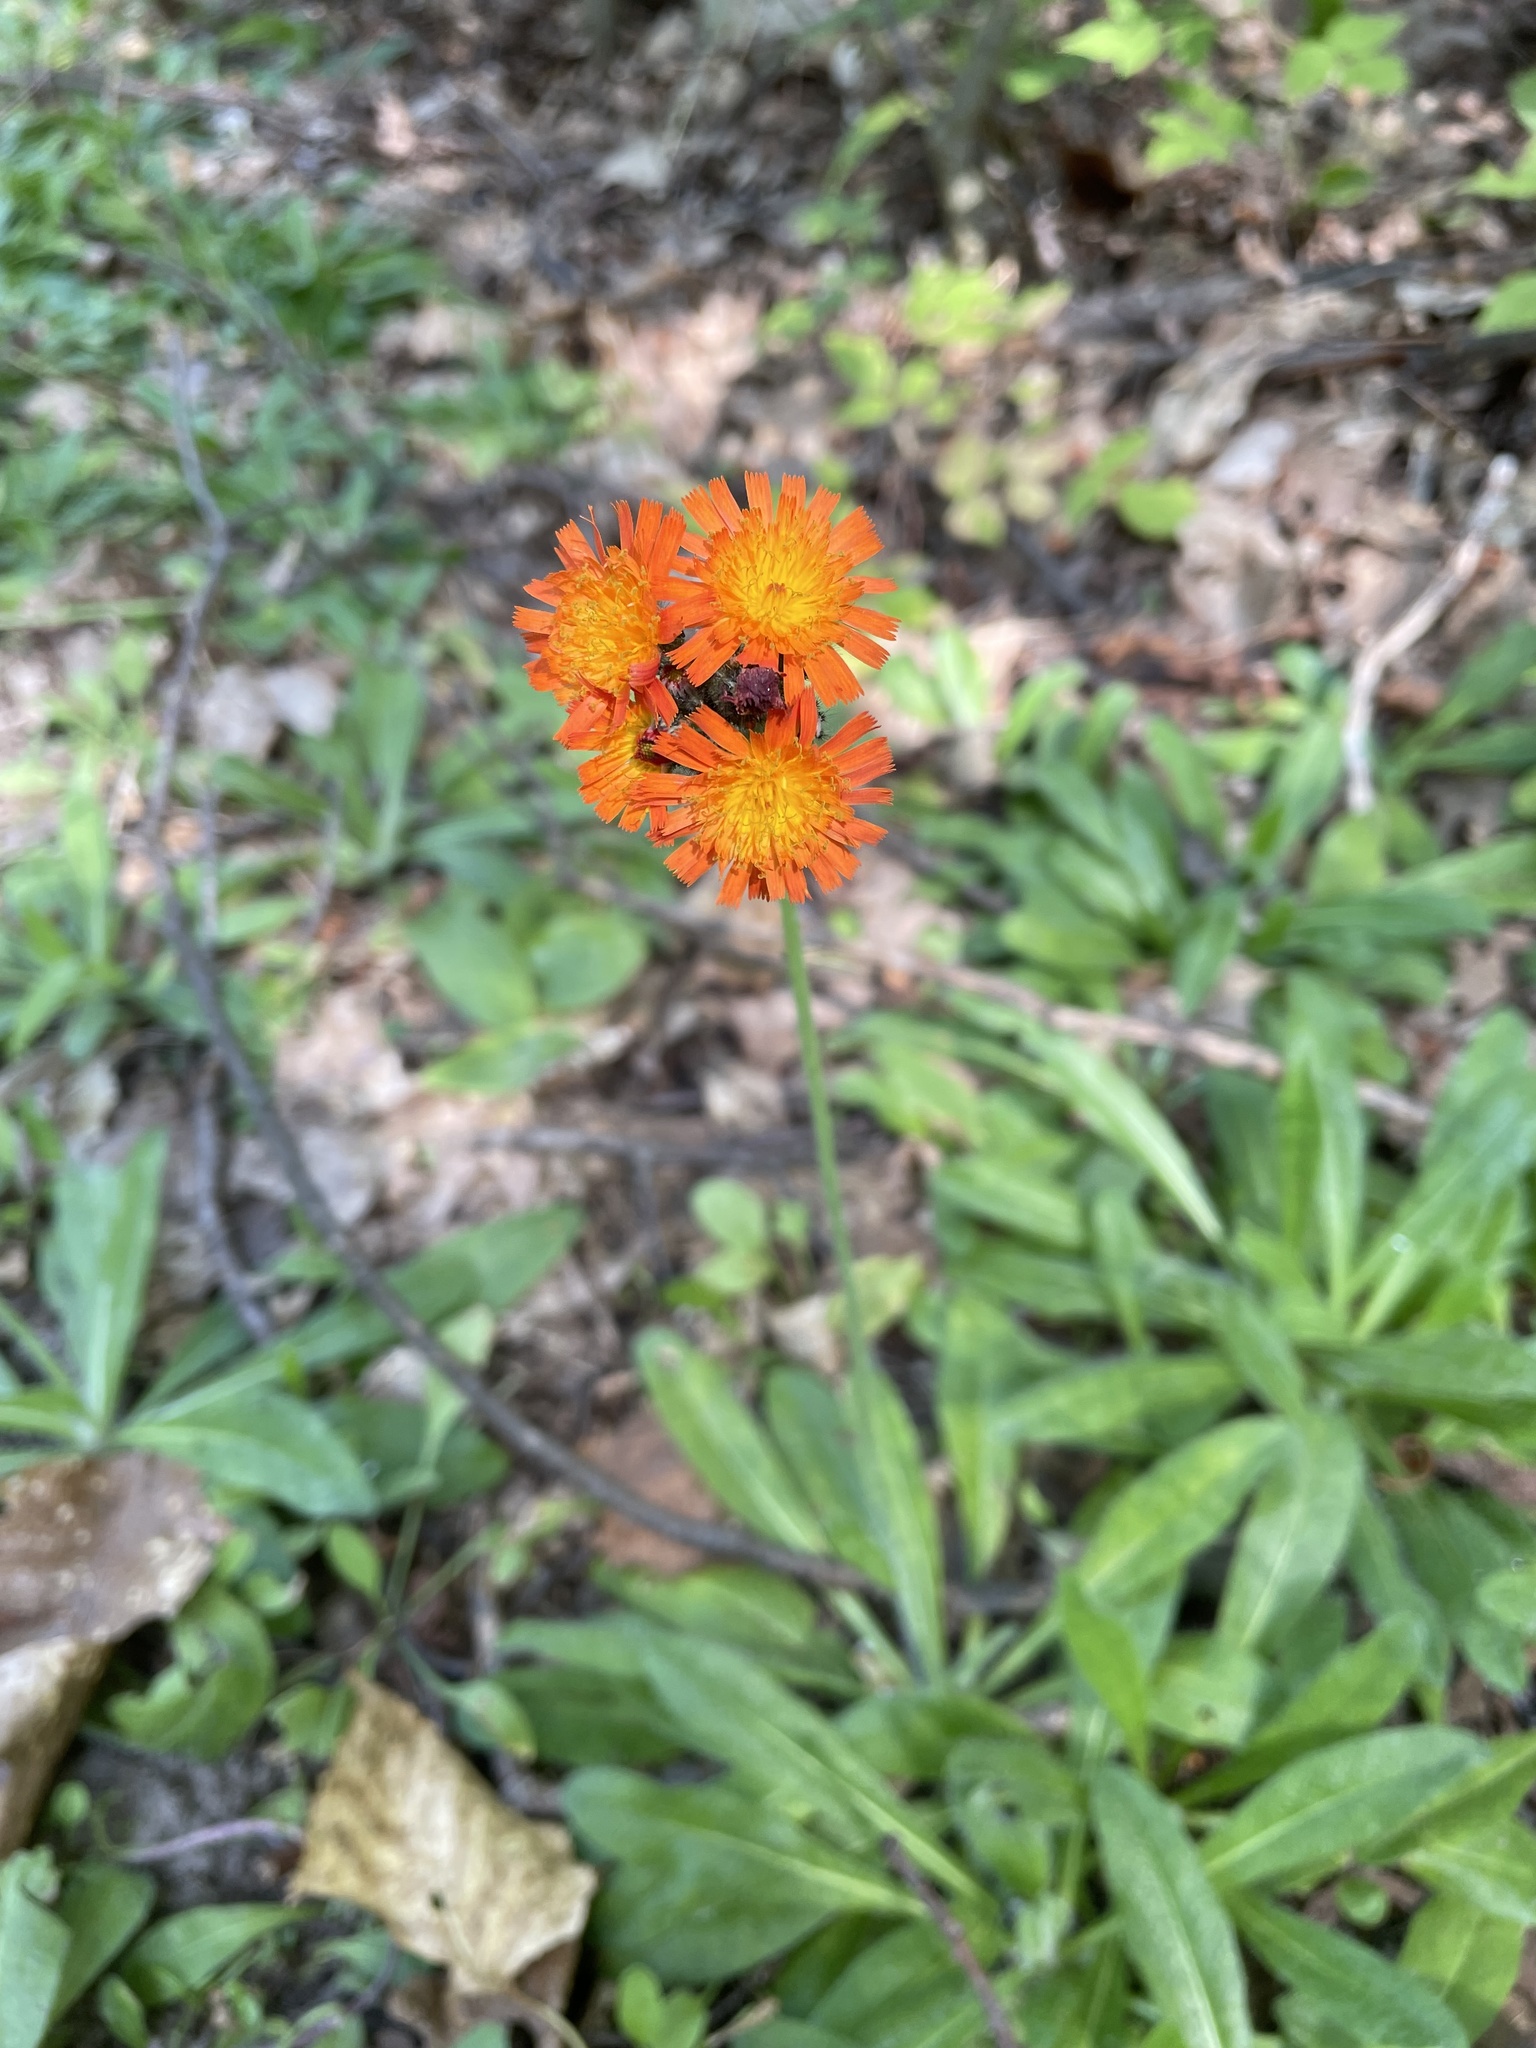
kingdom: Plantae
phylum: Tracheophyta
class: Magnoliopsida
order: Asterales
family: Asteraceae
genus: Pilosella
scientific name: Pilosella aurantiaca
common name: Fox-and-cubs
